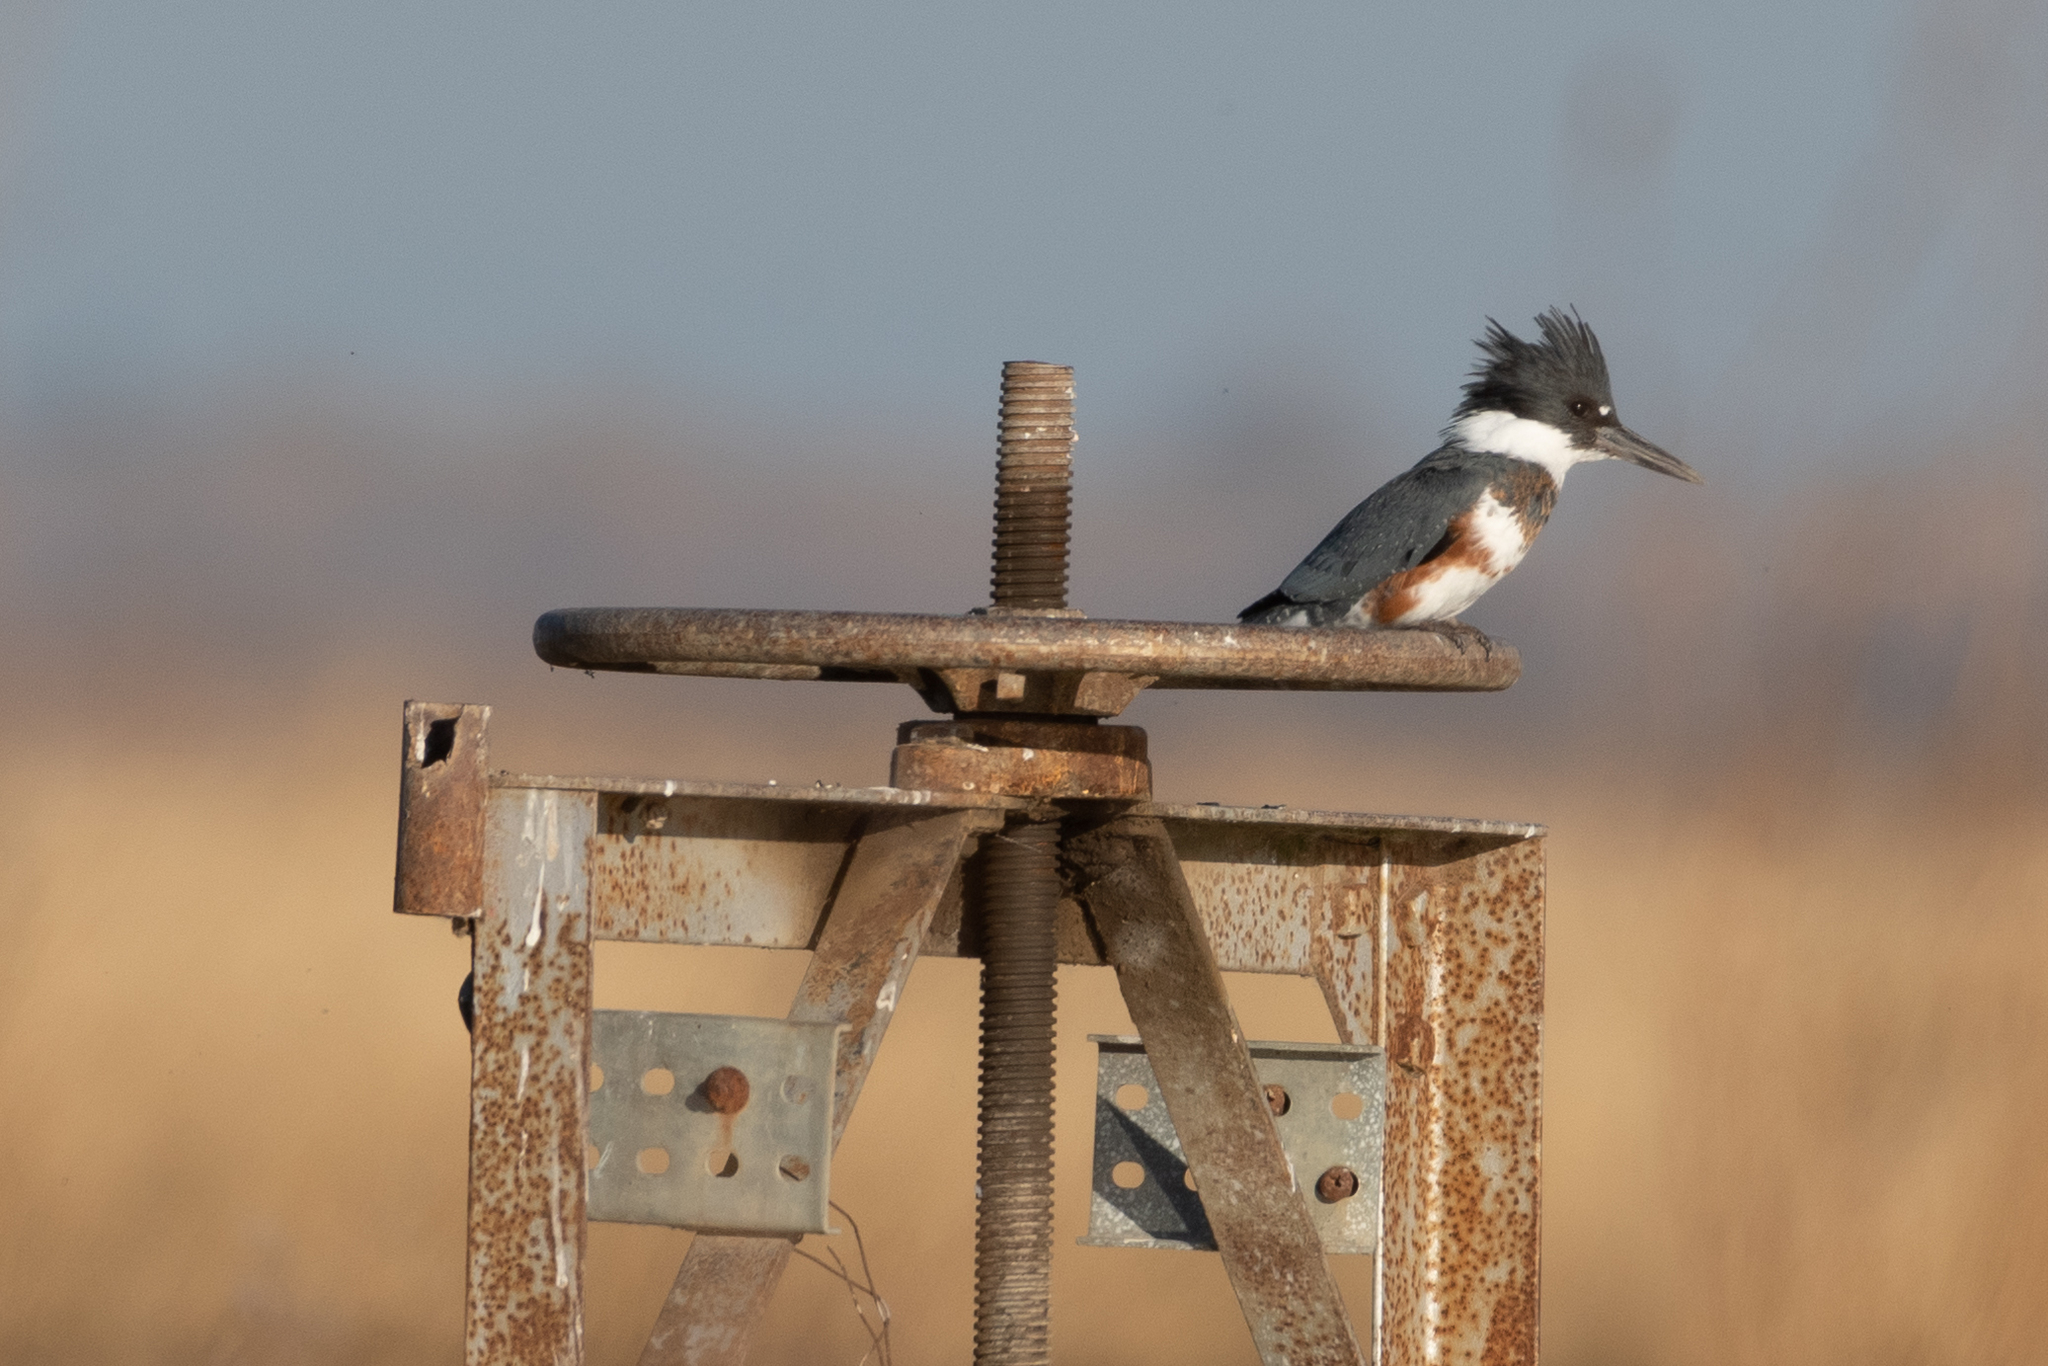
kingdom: Animalia
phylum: Chordata
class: Aves
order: Coraciiformes
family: Alcedinidae
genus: Megaceryle
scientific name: Megaceryle alcyon
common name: Belted kingfisher
